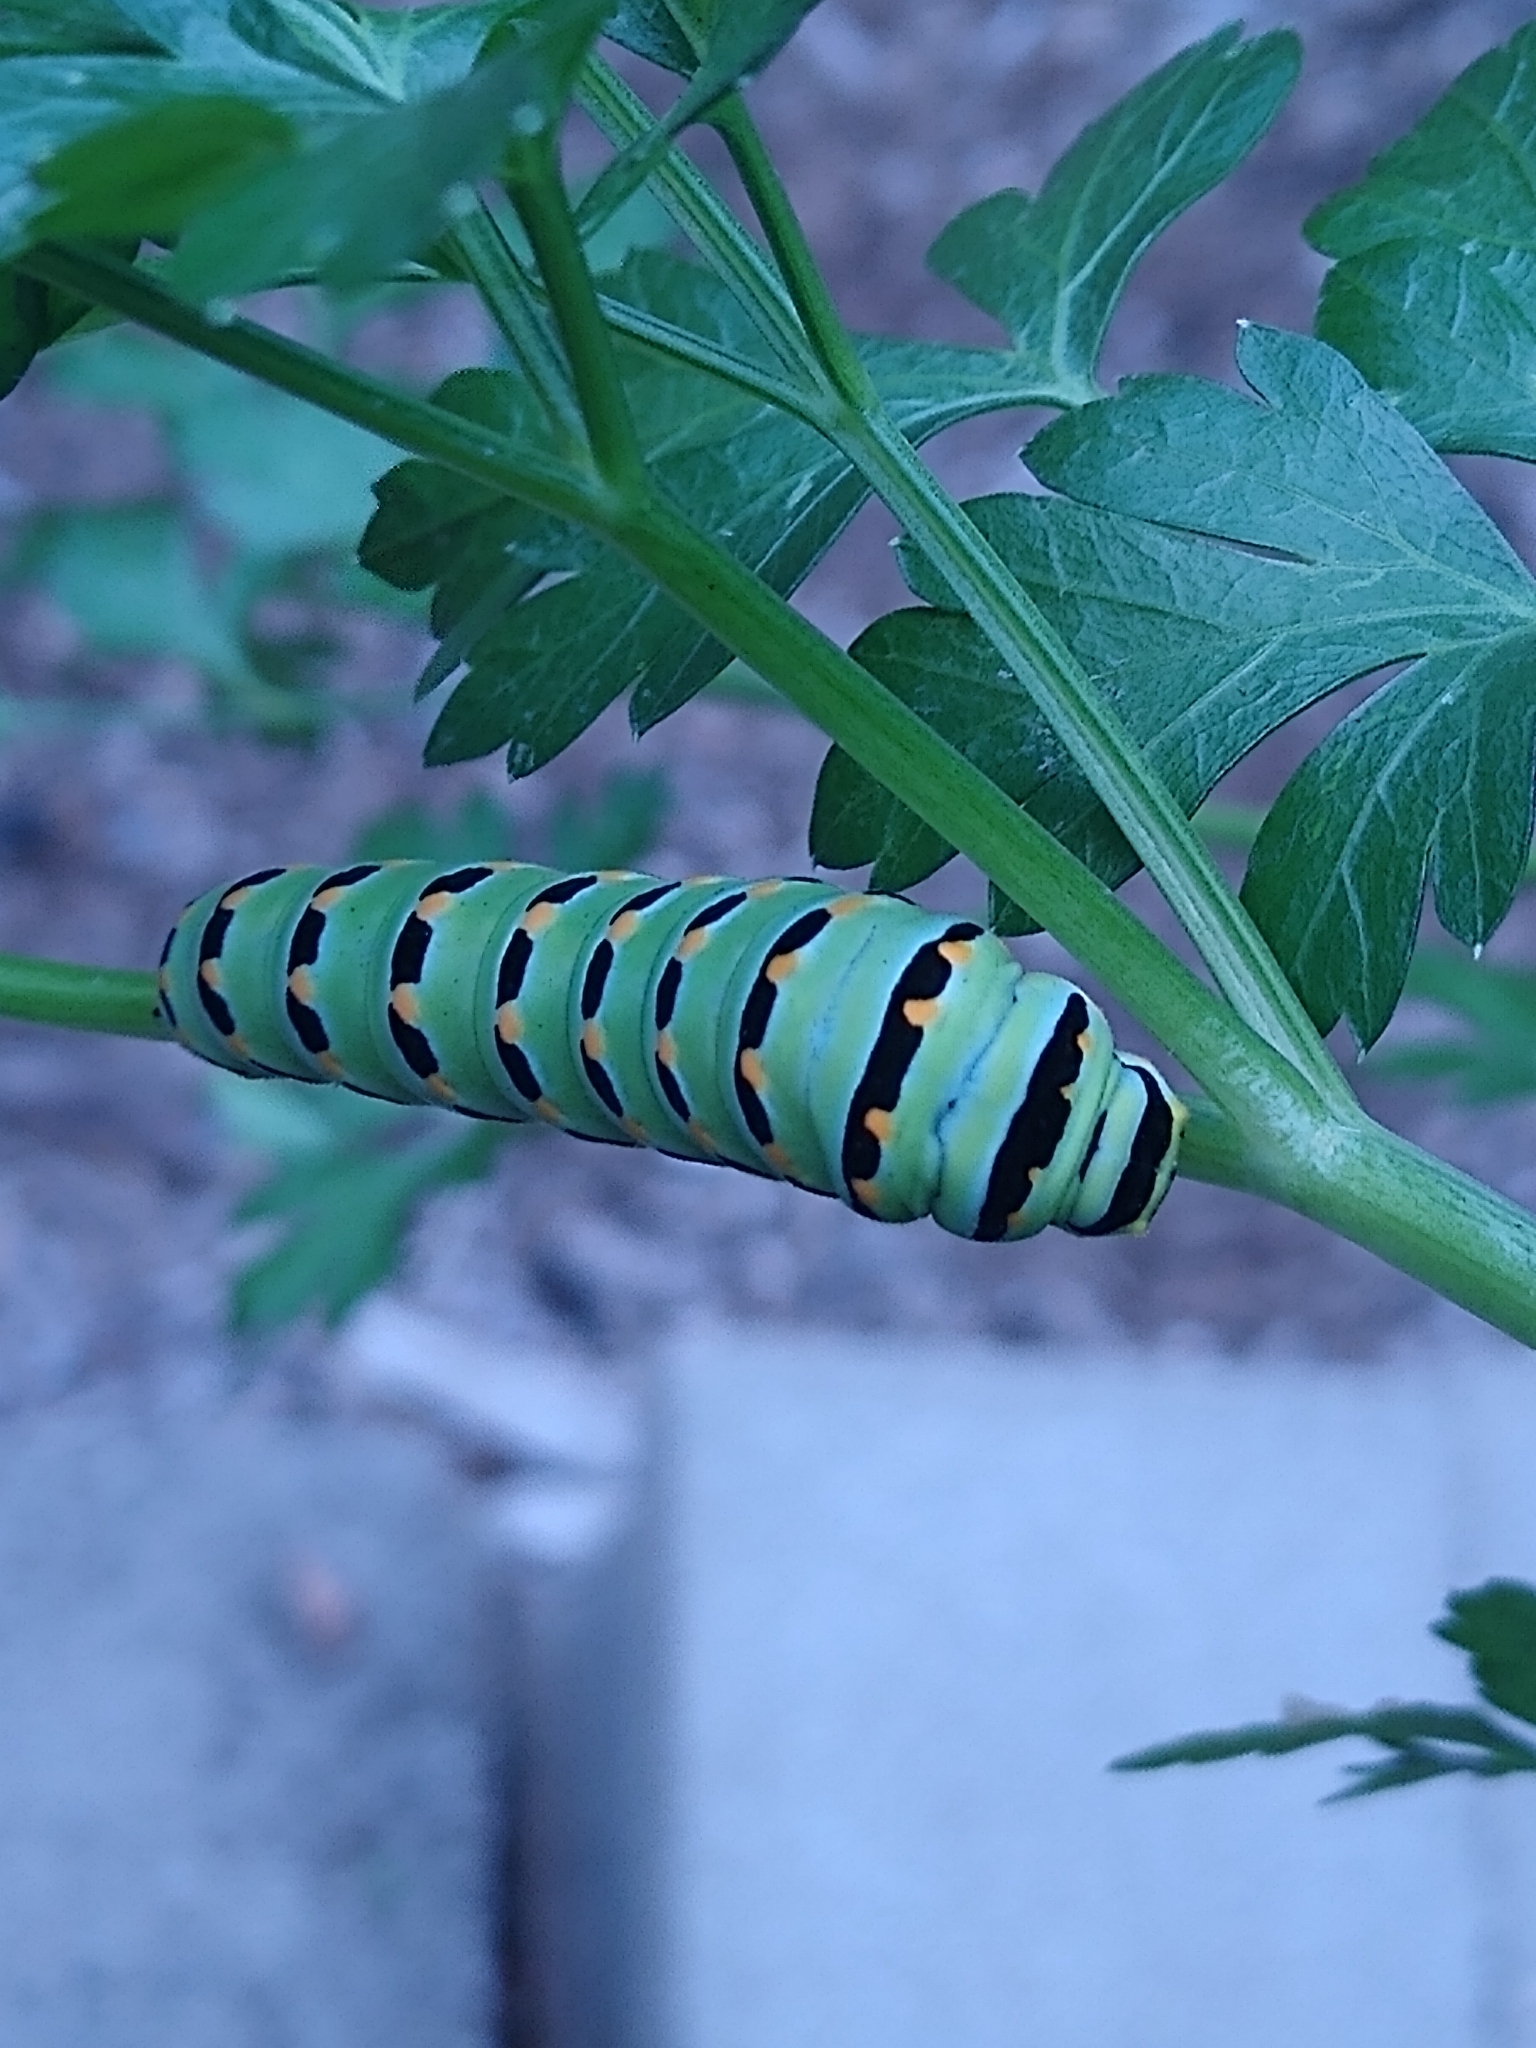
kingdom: Animalia
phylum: Arthropoda
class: Insecta
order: Lepidoptera
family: Papilionidae
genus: Papilio
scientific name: Papilio zelicaon
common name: Anise swallowtail
